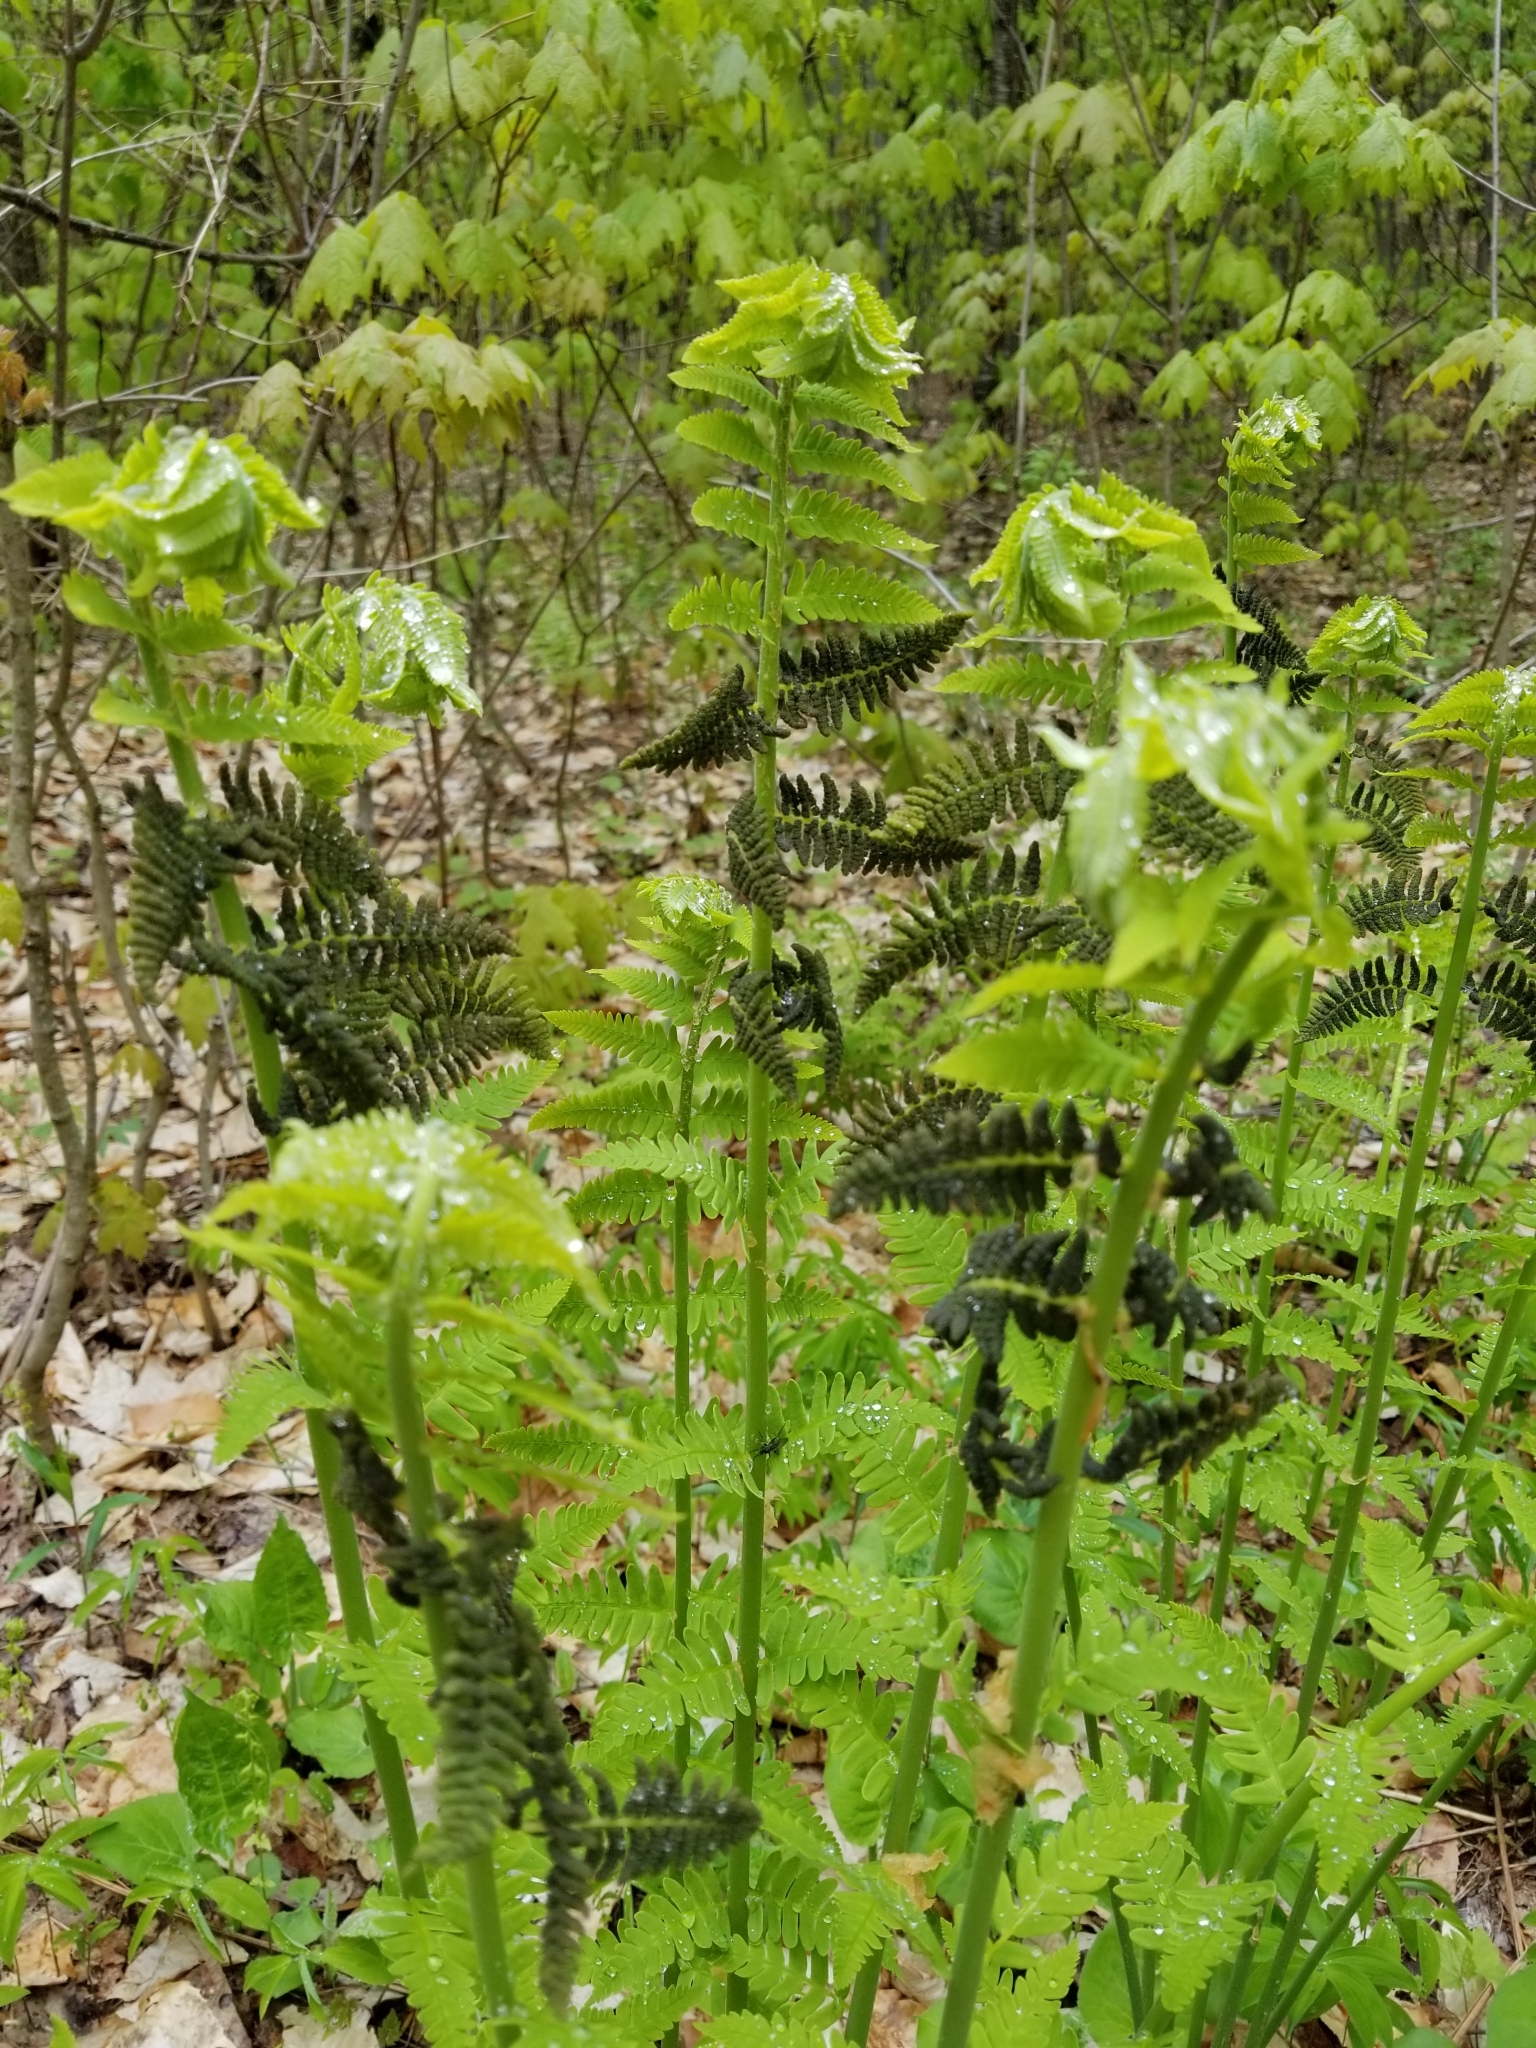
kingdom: Plantae
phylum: Tracheophyta
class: Polypodiopsida
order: Osmundales
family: Osmundaceae
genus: Claytosmunda
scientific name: Claytosmunda claytoniana
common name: Clayton's fern
